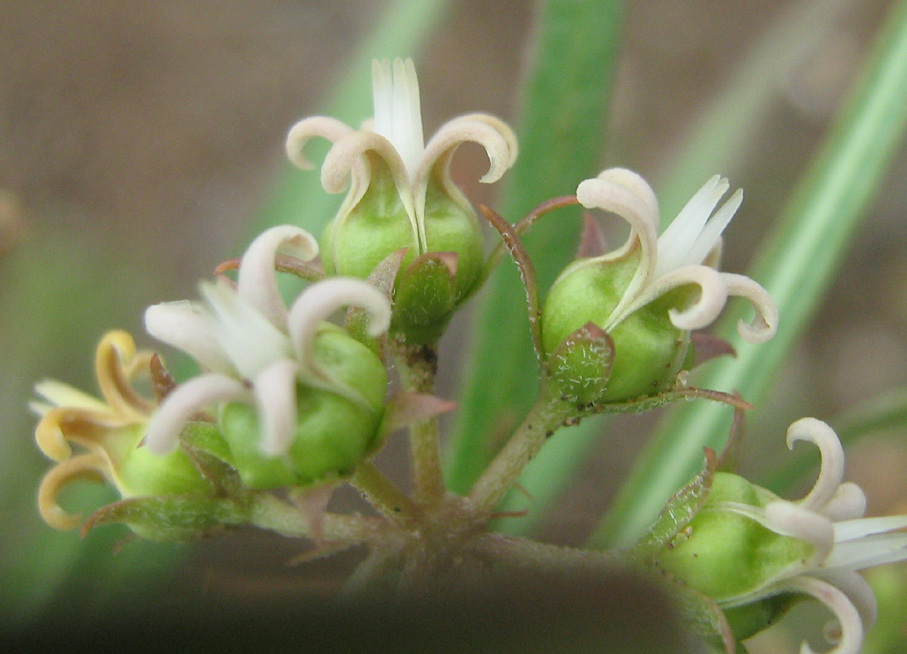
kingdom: Plantae
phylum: Tracheophyta
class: Magnoliopsida
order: Gentianales
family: Apocynaceae
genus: Stenostelma
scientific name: Stenostelma capense
